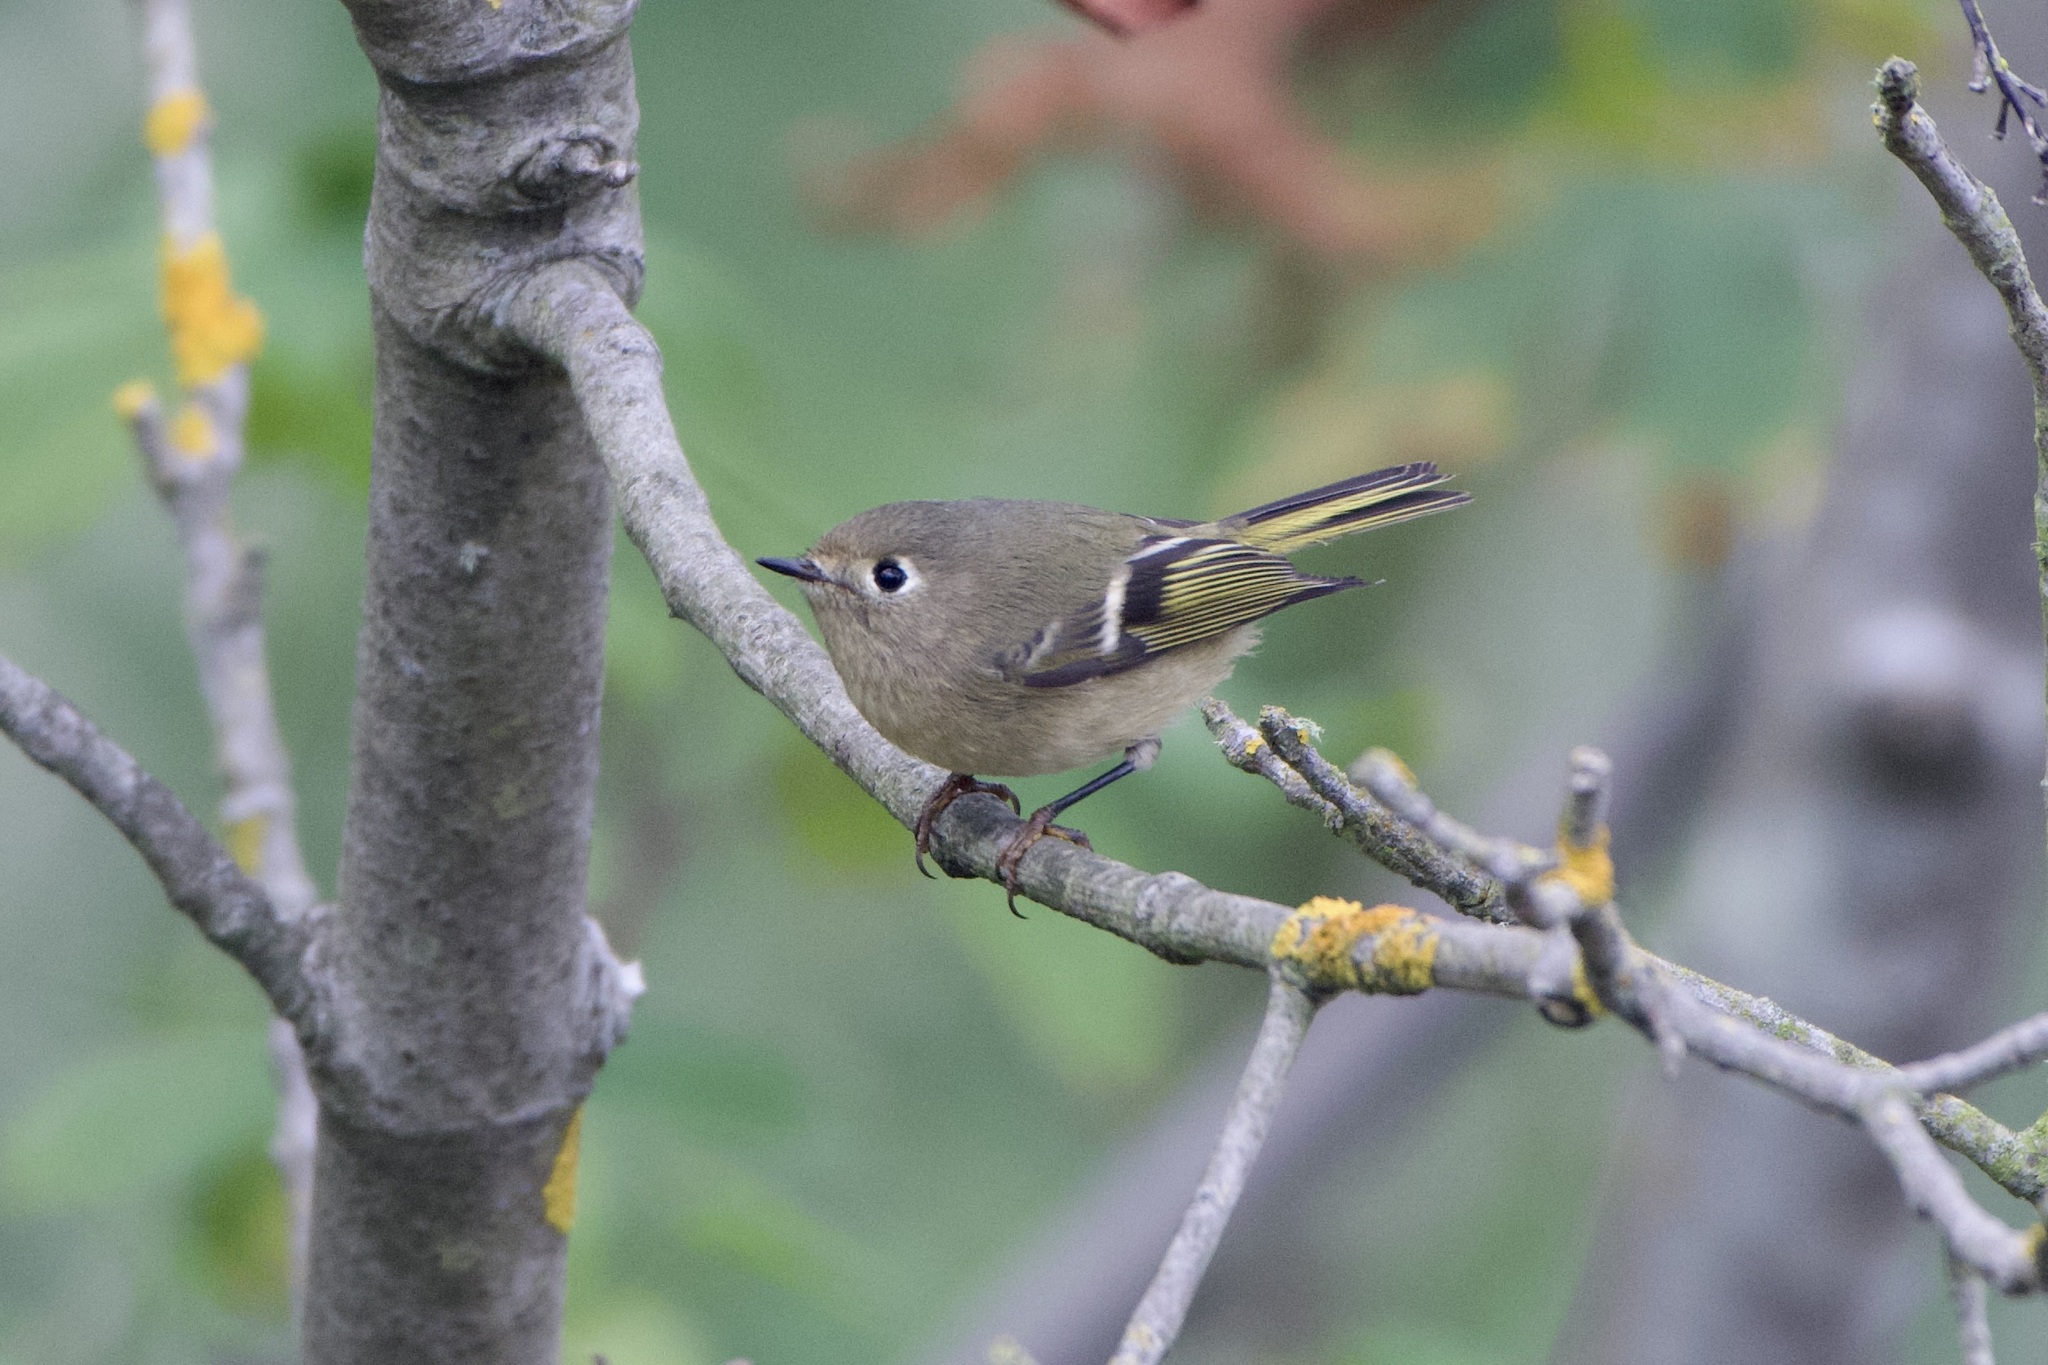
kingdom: Animalia
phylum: Chordata
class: Aves
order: Passeriformes
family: Regulidae
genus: Regulus
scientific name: Regulus calendula
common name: Ruby-crowned kinglet
